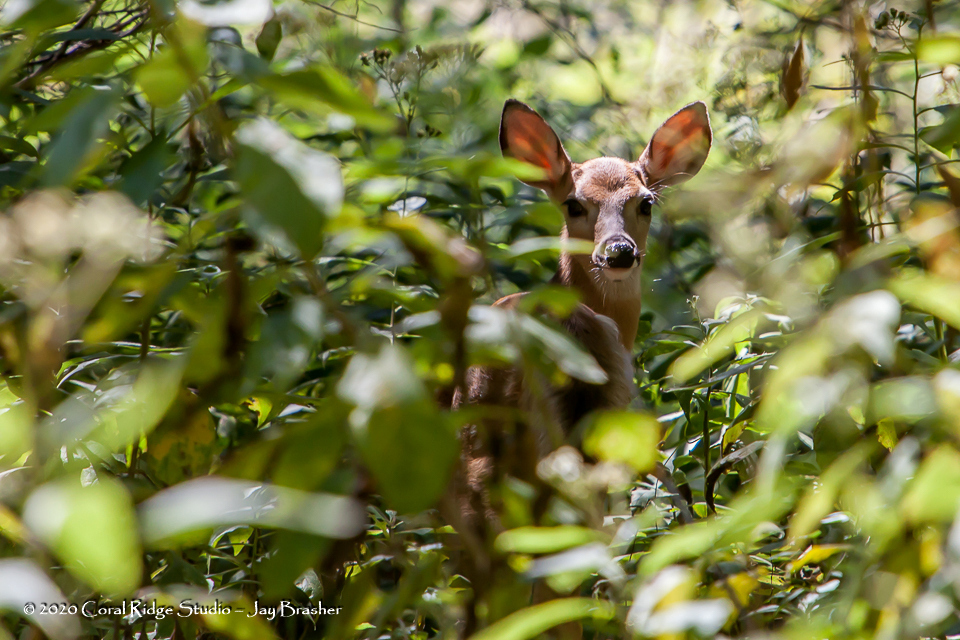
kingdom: Animalia
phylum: Chordata
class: Mammalia
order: Artiodactyla
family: Cervidae
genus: Odocoileus
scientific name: Odocoileus virginianus
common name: White-tailed deer
